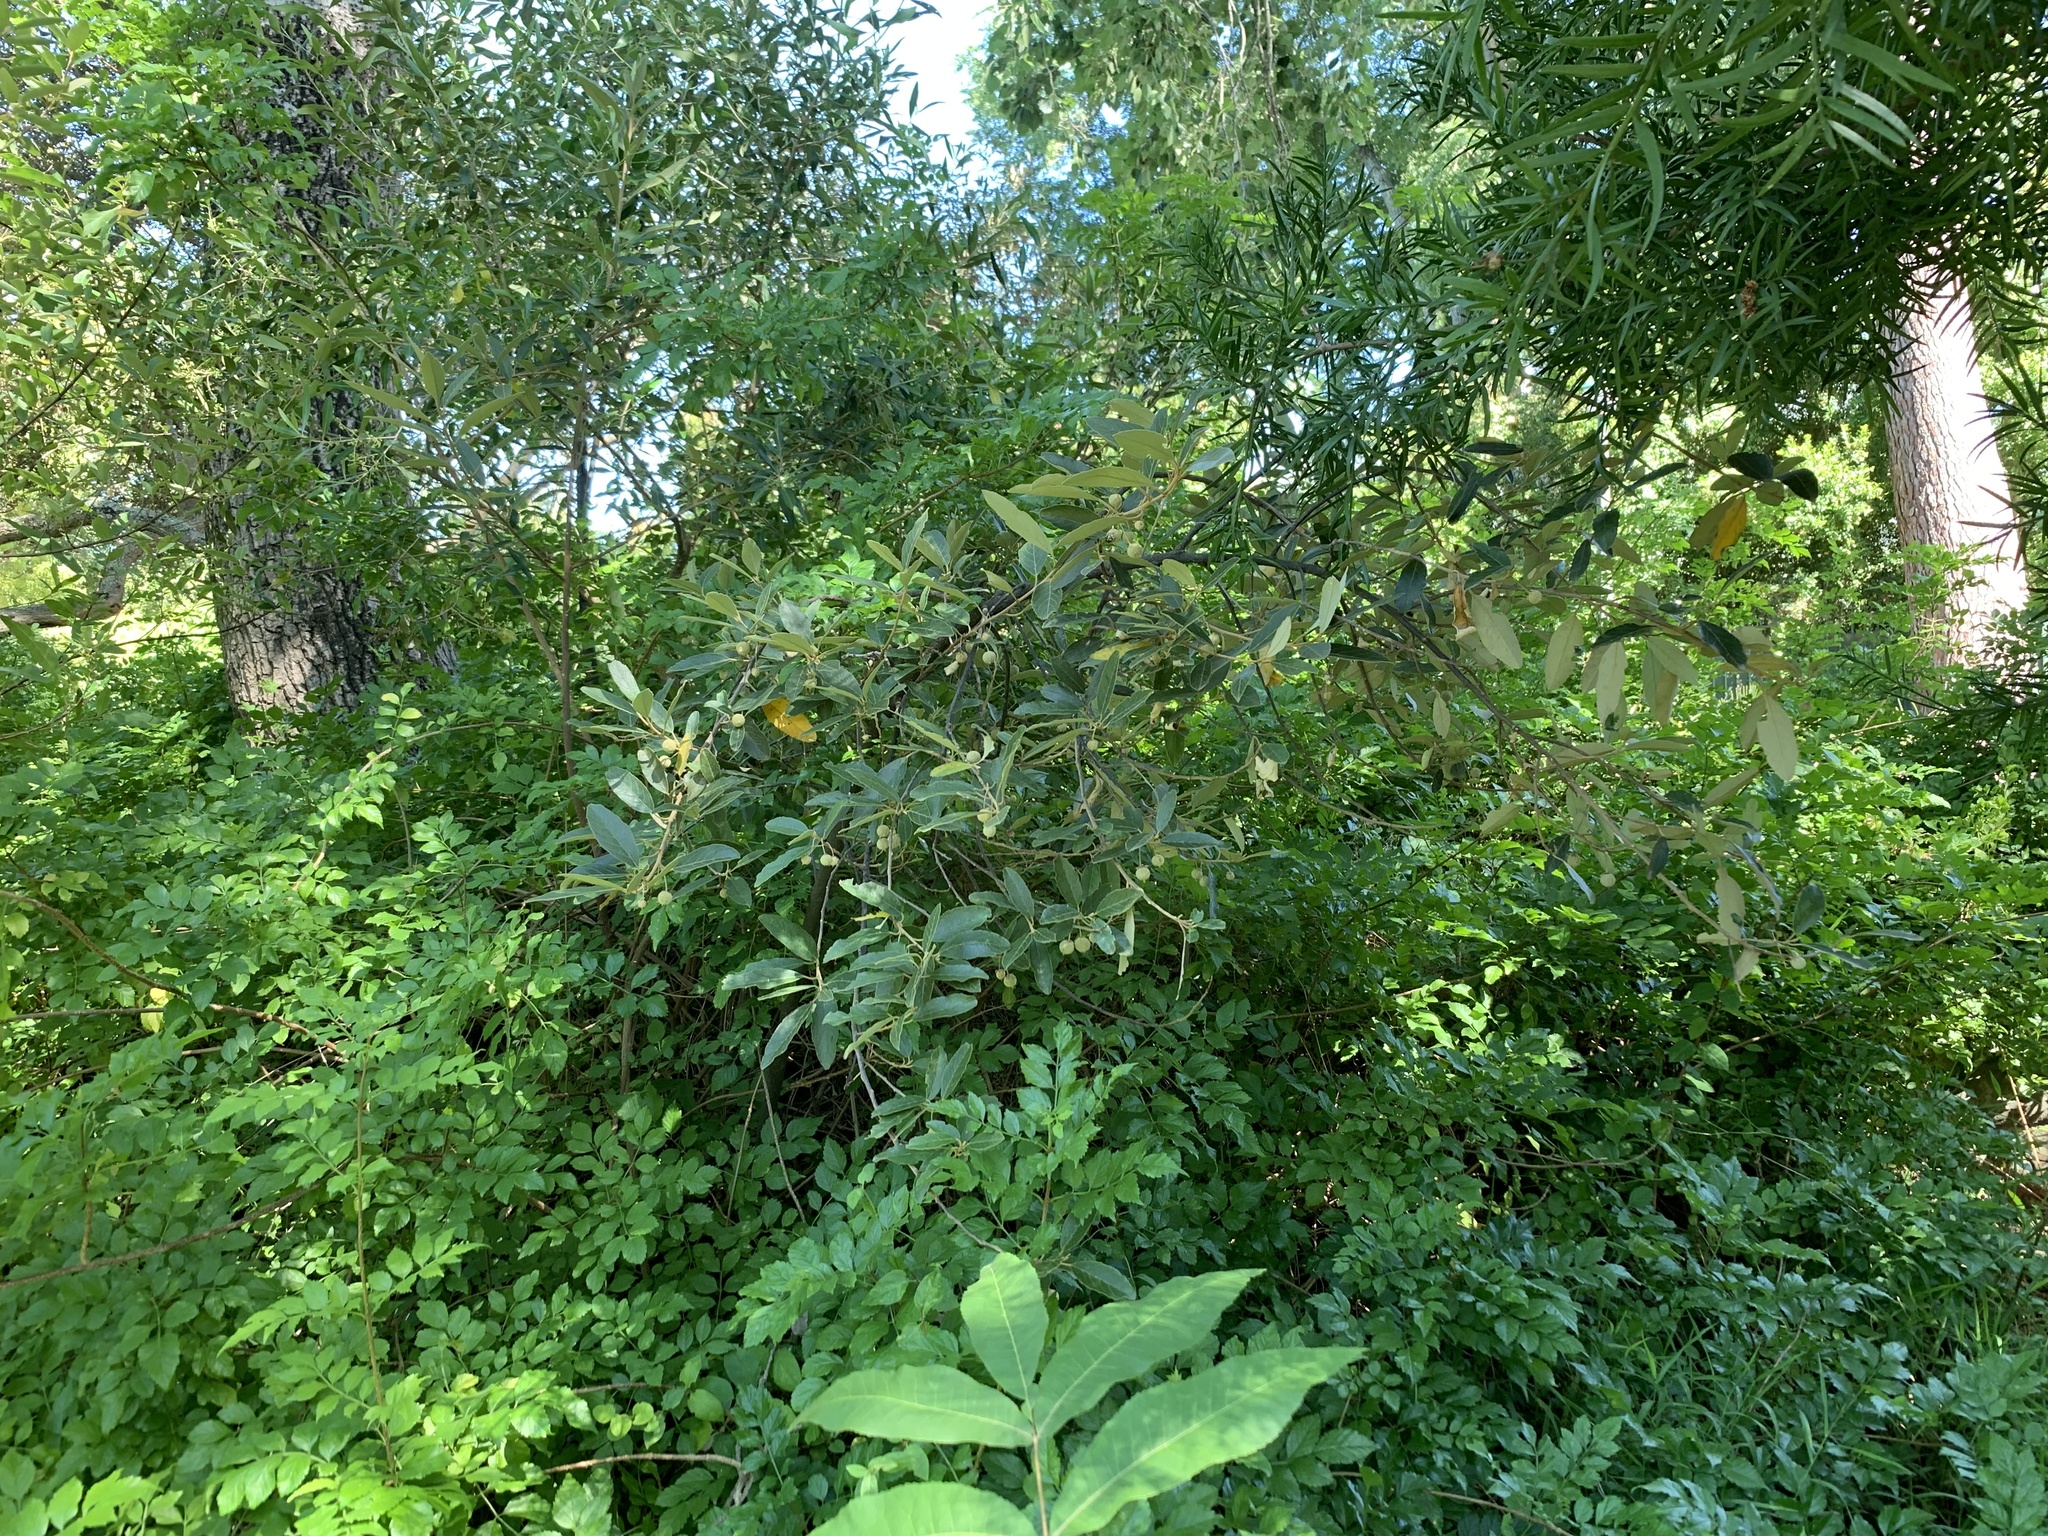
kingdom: Plantae
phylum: Tracheophyta
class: Magnoliopsida
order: Malpighiales
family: Achariaceae
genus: Kiggelaria
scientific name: Kiggelaria africana
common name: Wild peach
